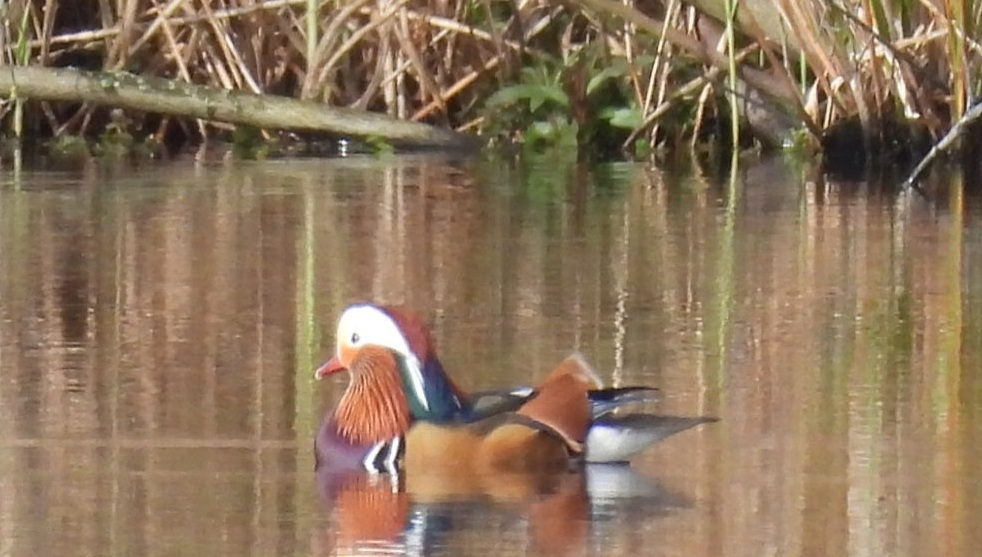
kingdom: Animalia
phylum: Chordata
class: Aves
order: Anseriformes
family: Anatidae
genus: Aix
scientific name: Aix galericulata
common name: Mandarin duck
